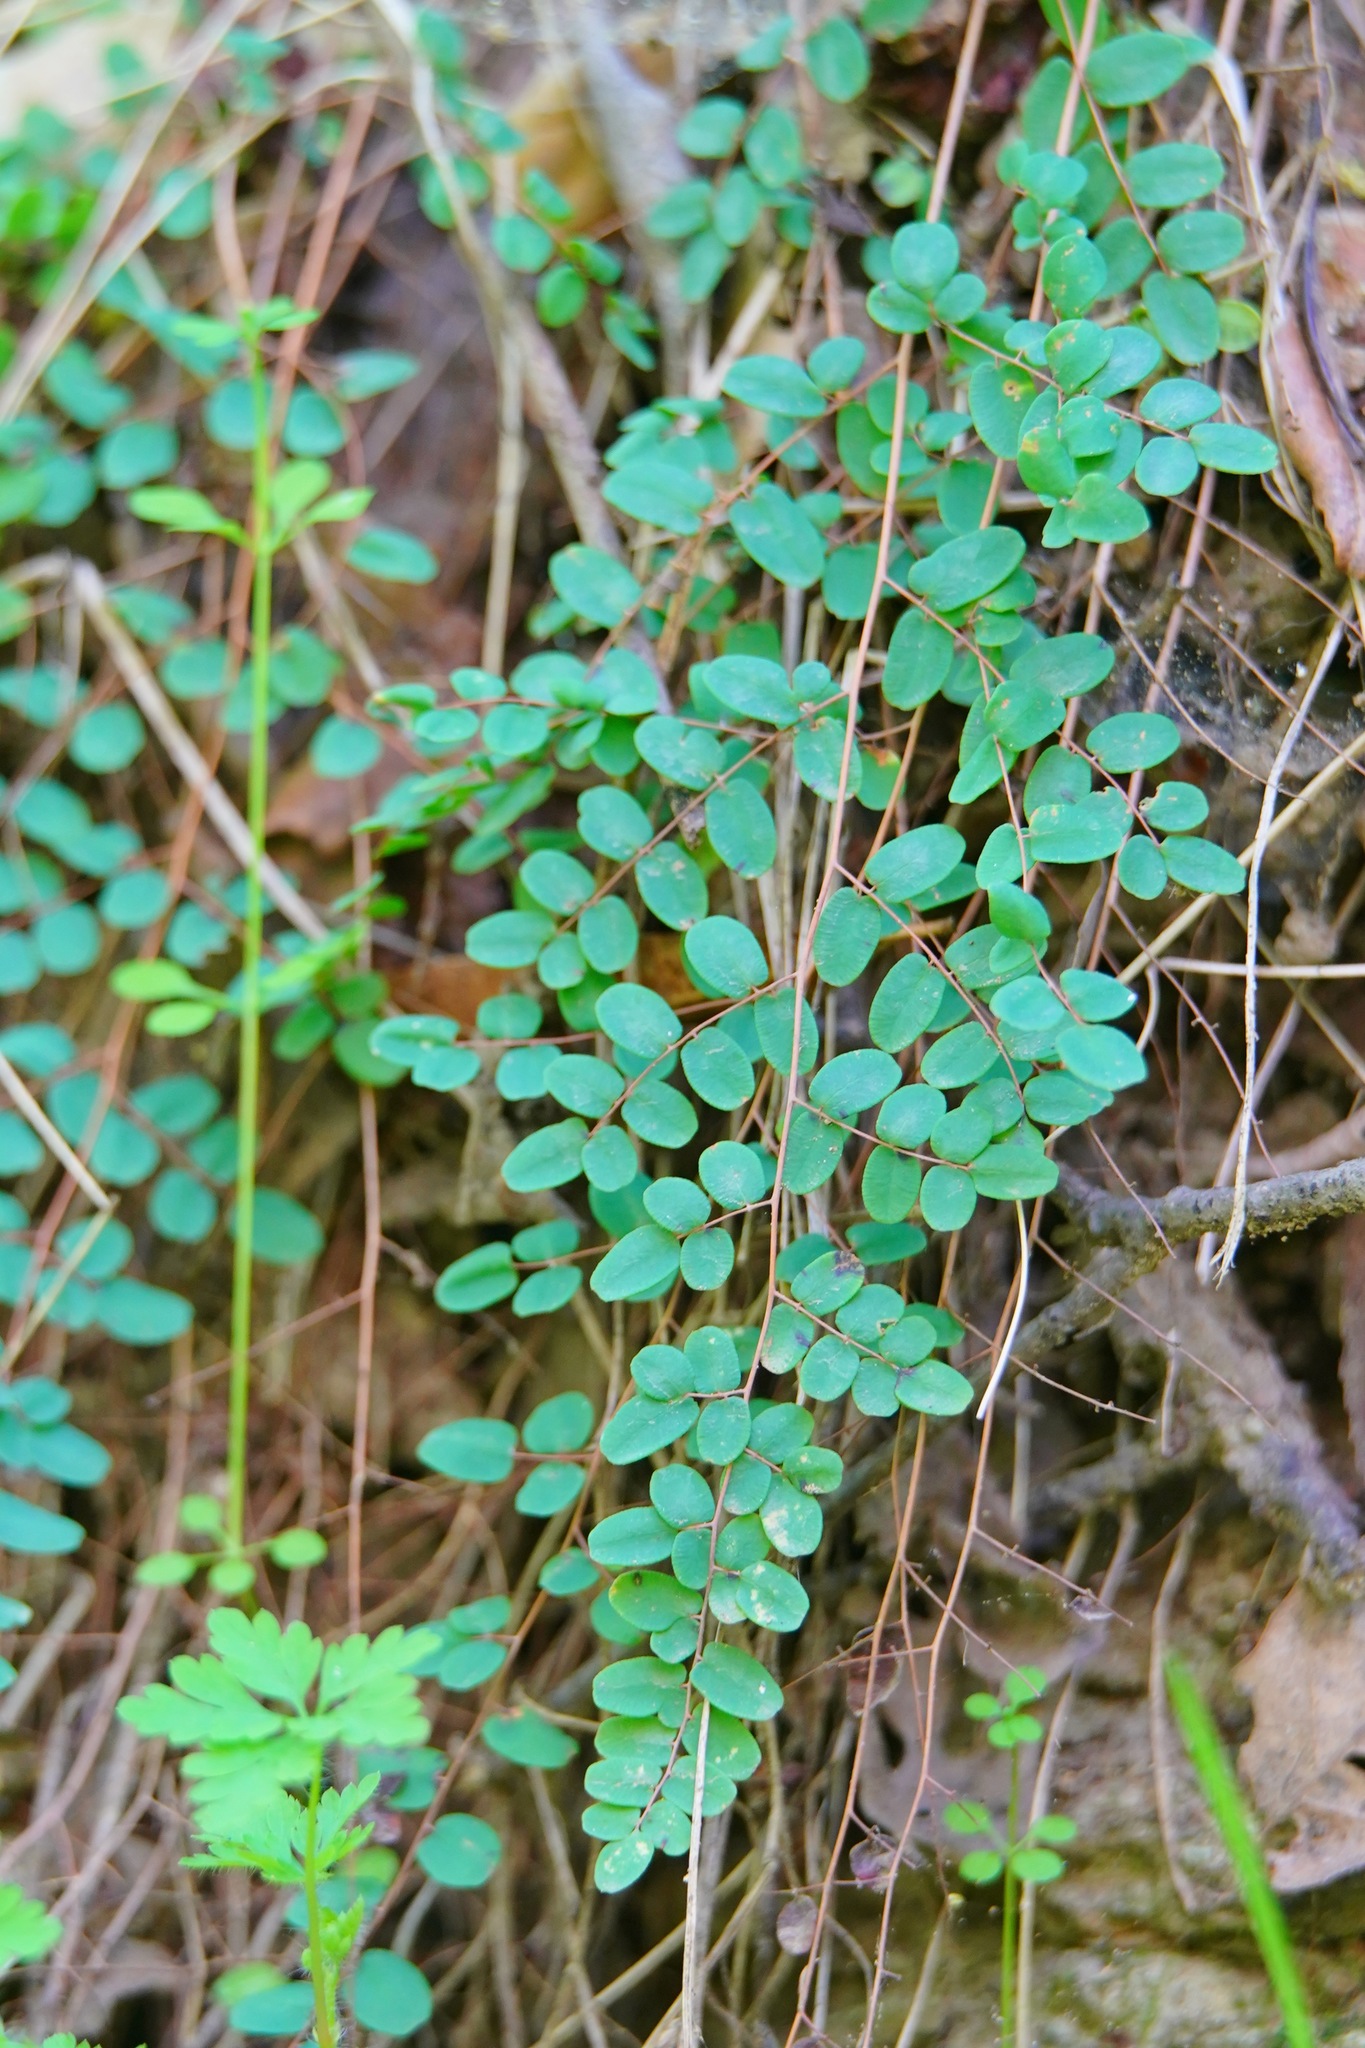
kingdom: Plantae
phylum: Tracheophyta
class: Polypodiopsida
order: Polypodiales
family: Pteridaceae
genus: Pellaea
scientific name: Pellaea andromedifolia
